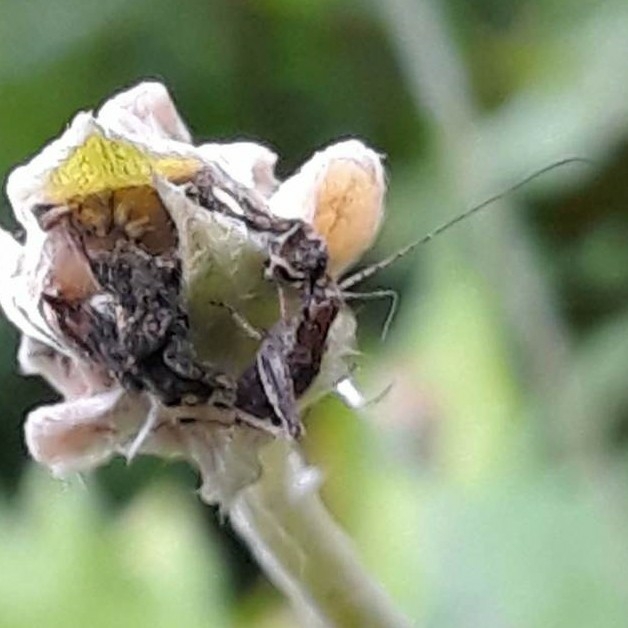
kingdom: Animalia
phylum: Arthropoda
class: Insecta
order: Orthoptera
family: Gryllidae
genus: Hapithus
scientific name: Hapithus agitator
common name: Restless bush cricket
